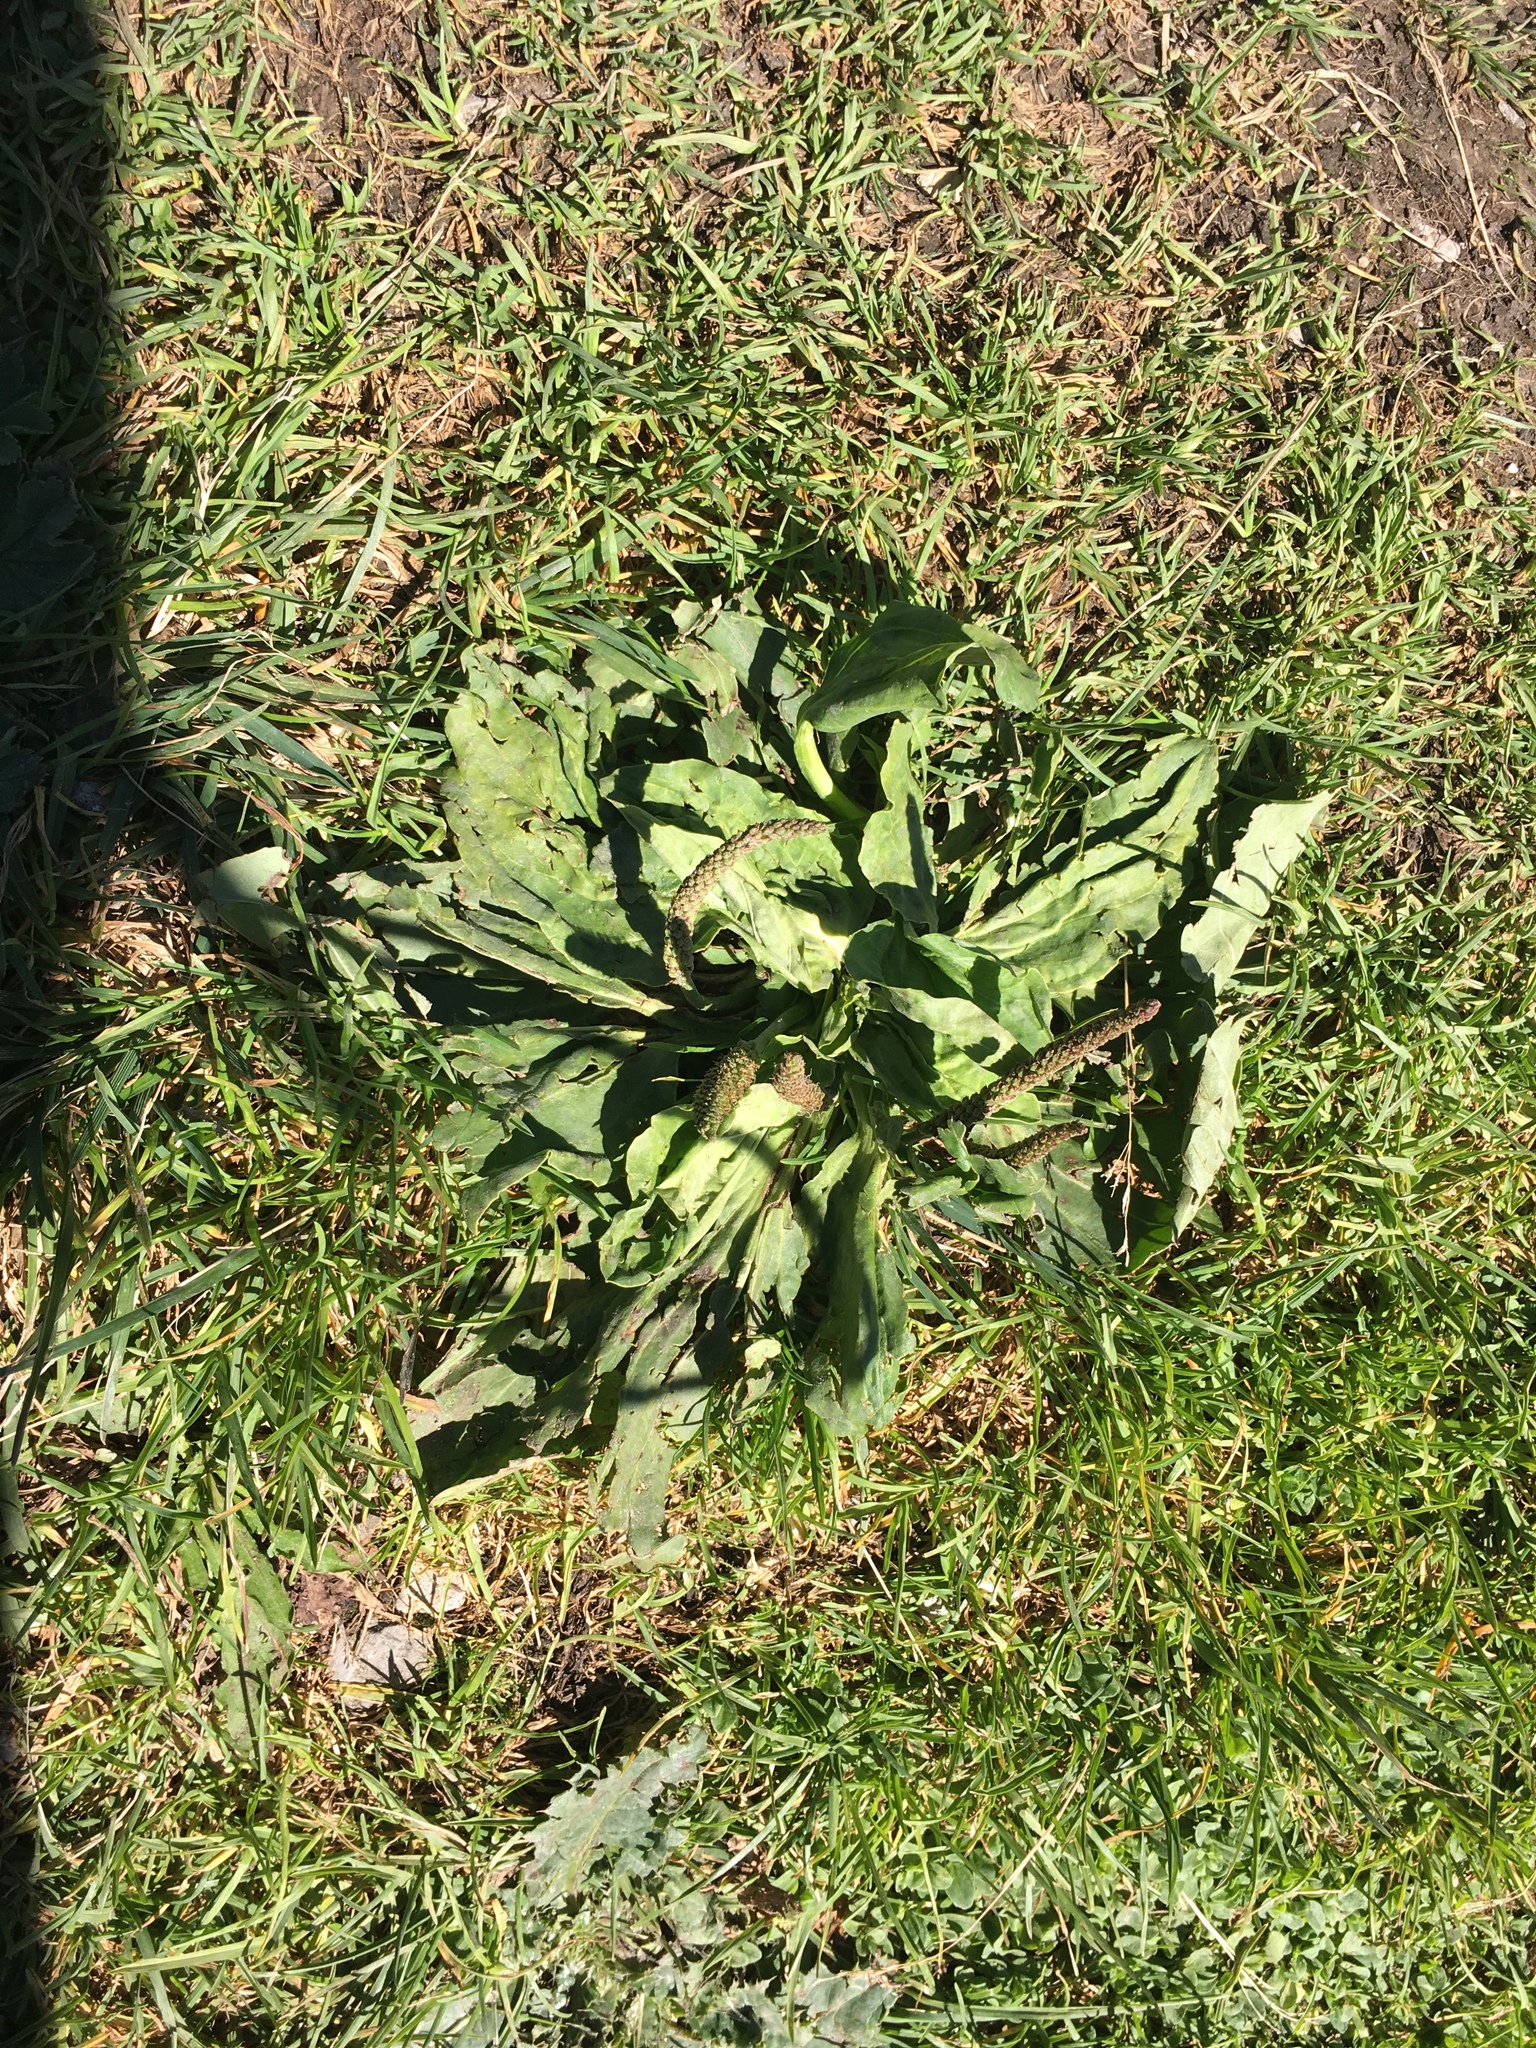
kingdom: Plantae
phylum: Tracheophyta
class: Magnoliopsida
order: Lamiales
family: Plantaginaceae
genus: Plantago
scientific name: Plantago major
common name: Common plantain
